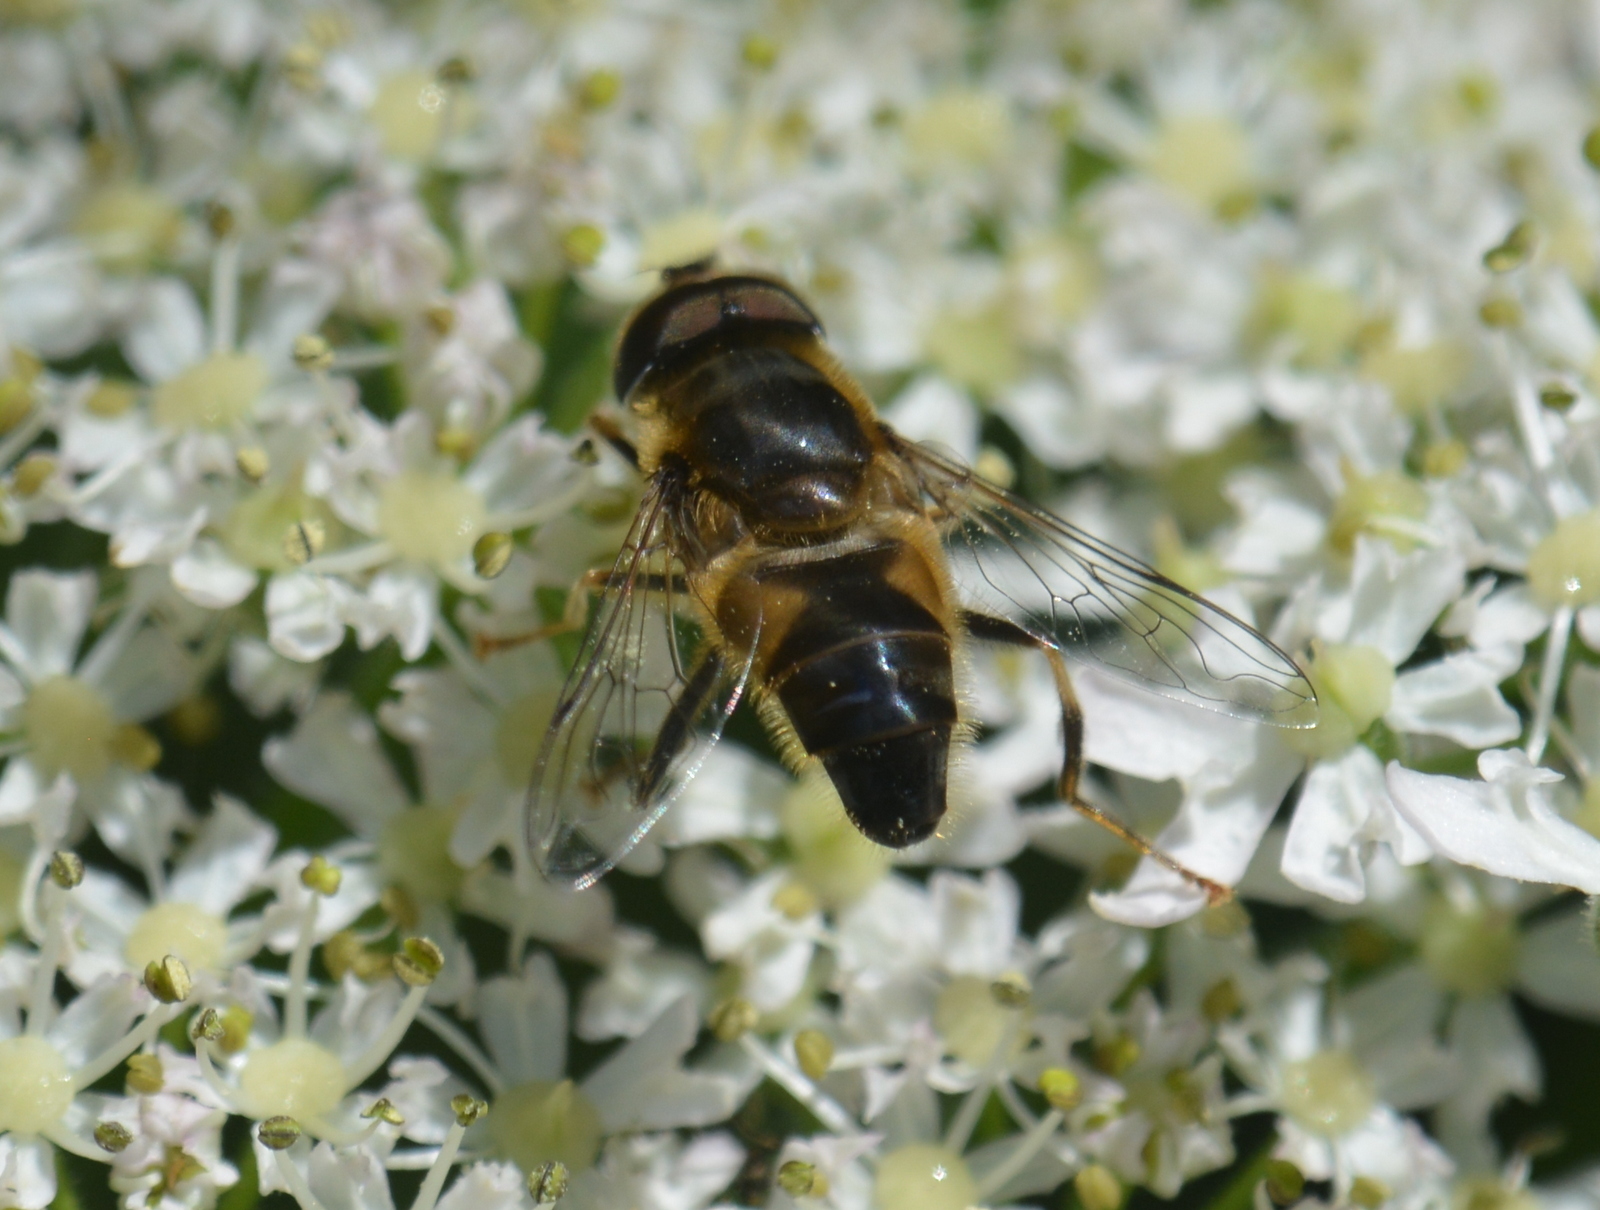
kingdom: Animalia
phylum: Arthropoda
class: Insecta
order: Diptera
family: Syrphidae
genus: Eristalis
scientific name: Eristalis pertinax
